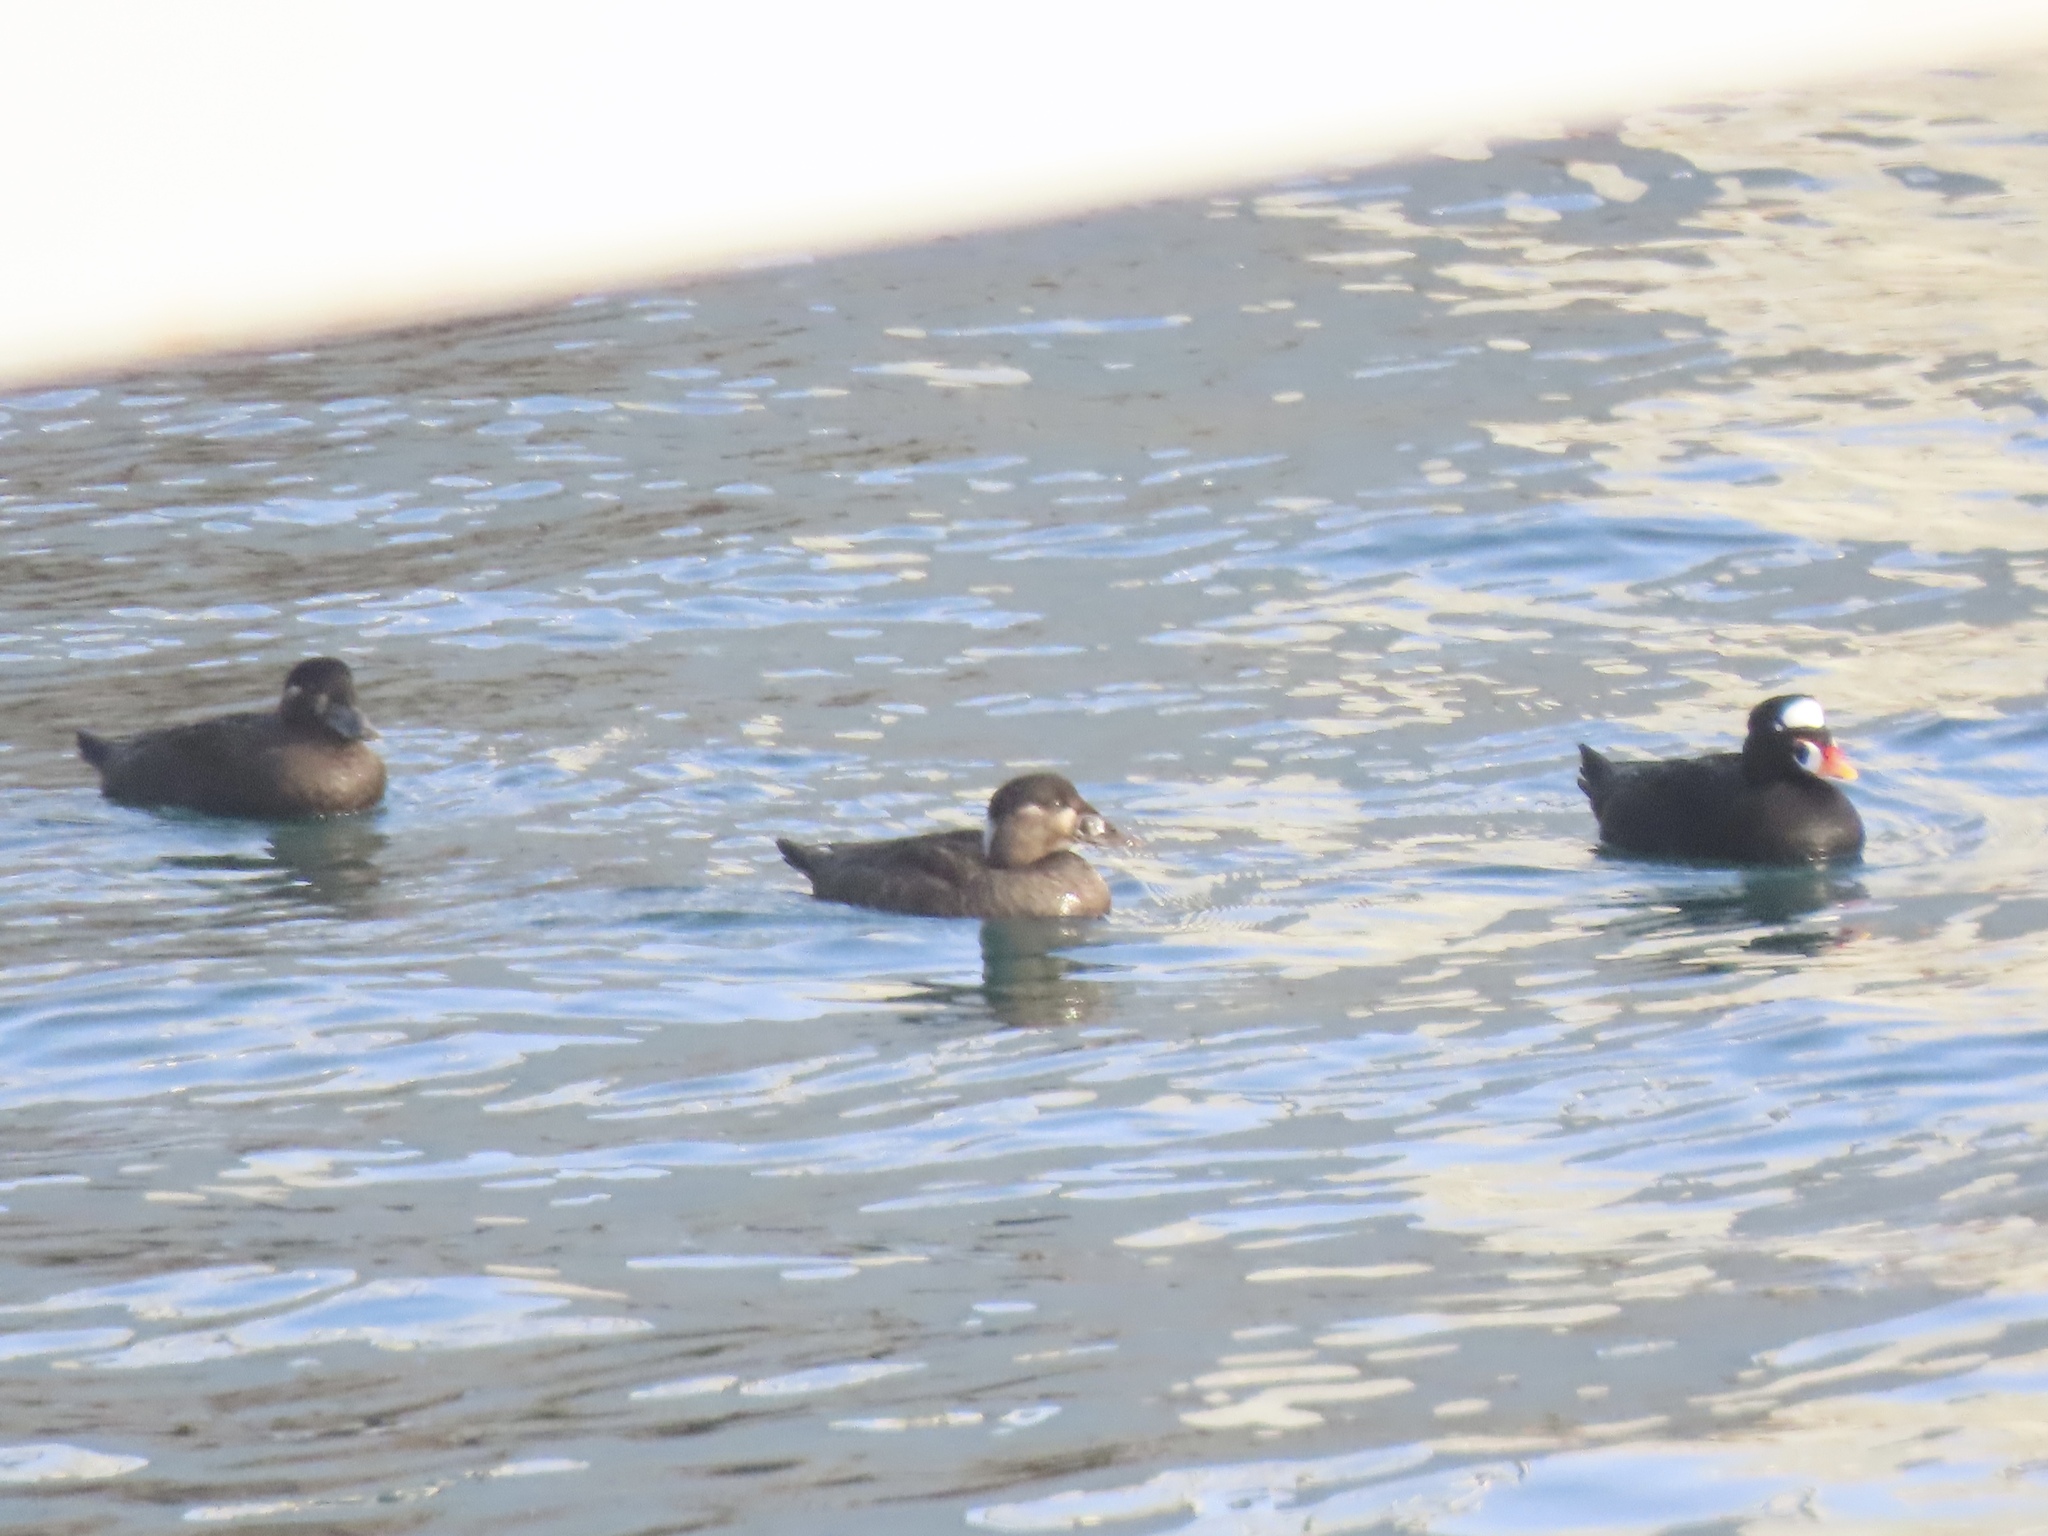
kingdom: Animalia
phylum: Chordata
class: Aves
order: Anseriformes
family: Anatidae
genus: Melanitta
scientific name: Melanitta perspicillata
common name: Surf scoter
